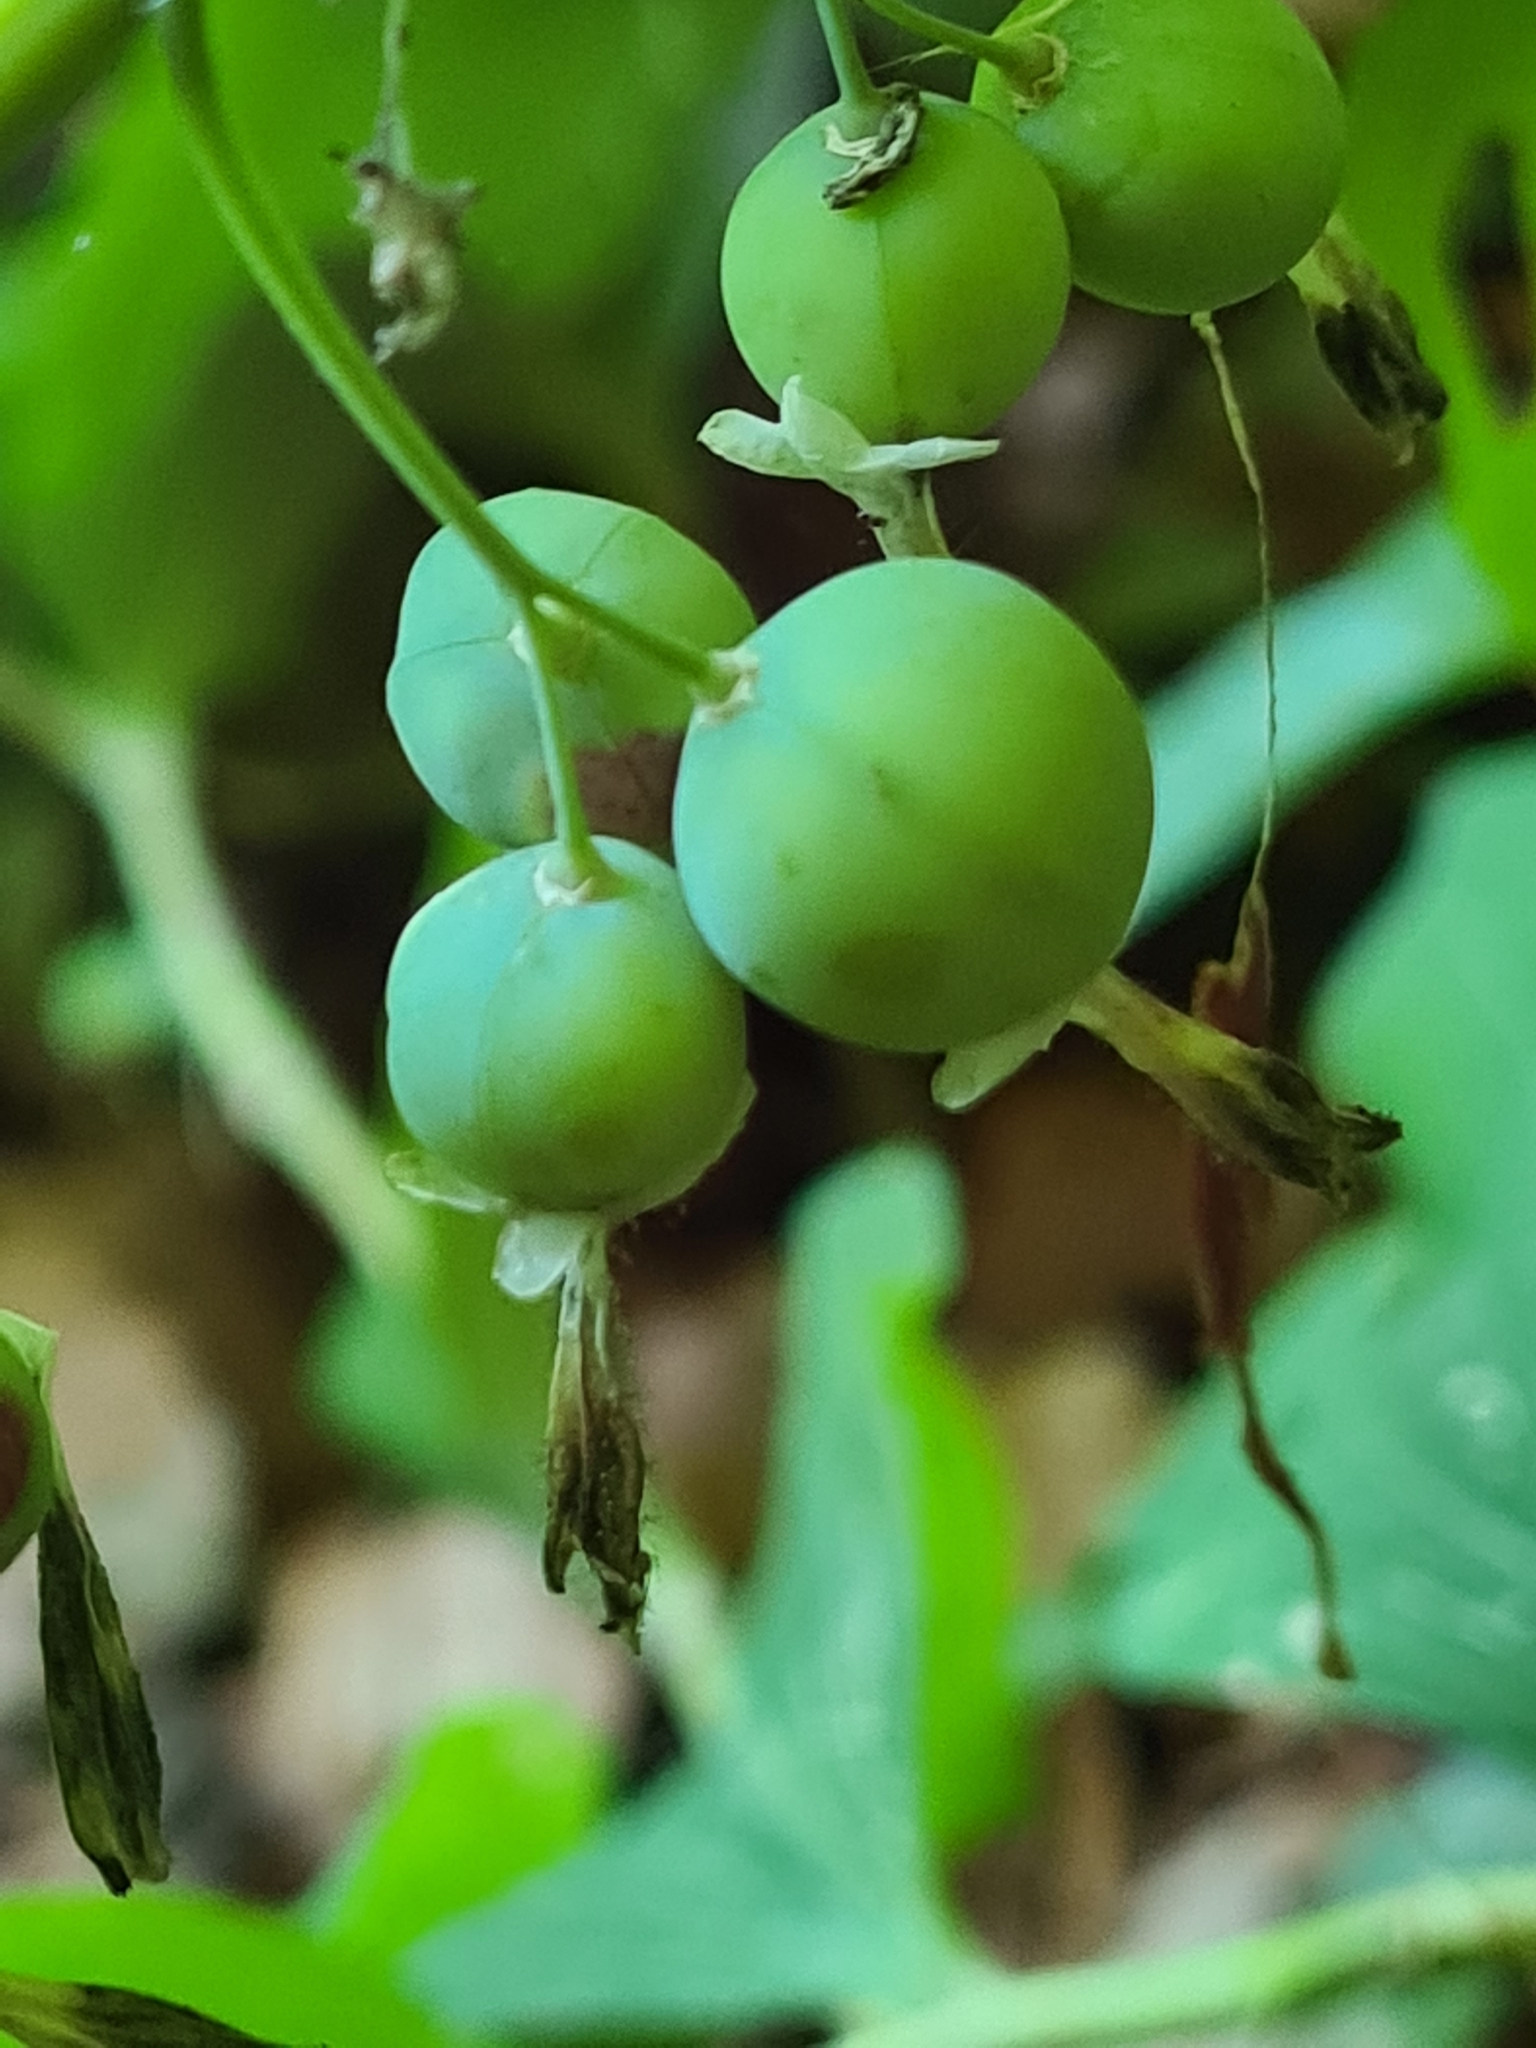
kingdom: Plantae
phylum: Tracheophyta
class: Liliopsida
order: Asparagales
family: Asparagaceae
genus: Polygonatum
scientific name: Polygonatum multiflorum
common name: Solomon's-seal
